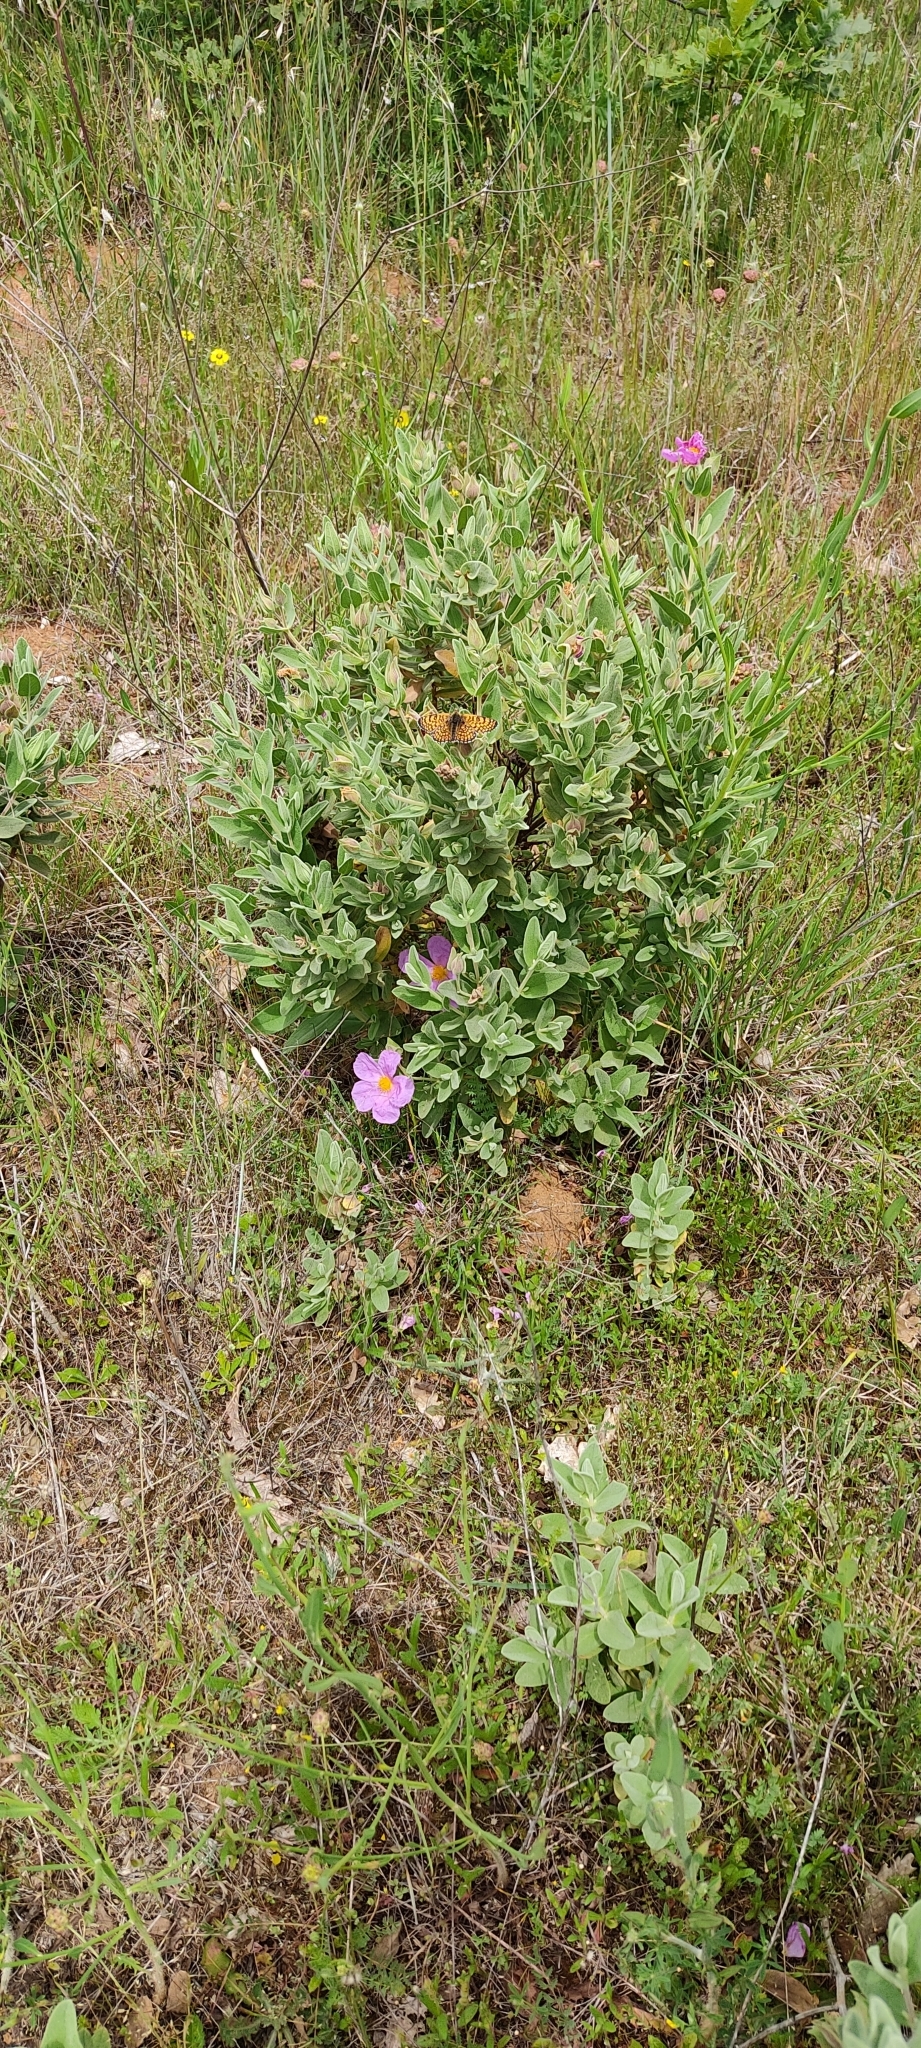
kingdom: Animalia
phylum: Arthropoda
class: Insecta
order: Lepidoptera
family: Nymphalidae
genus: Melitaea
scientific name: Melitaea cinxia
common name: Glanville fritillary
